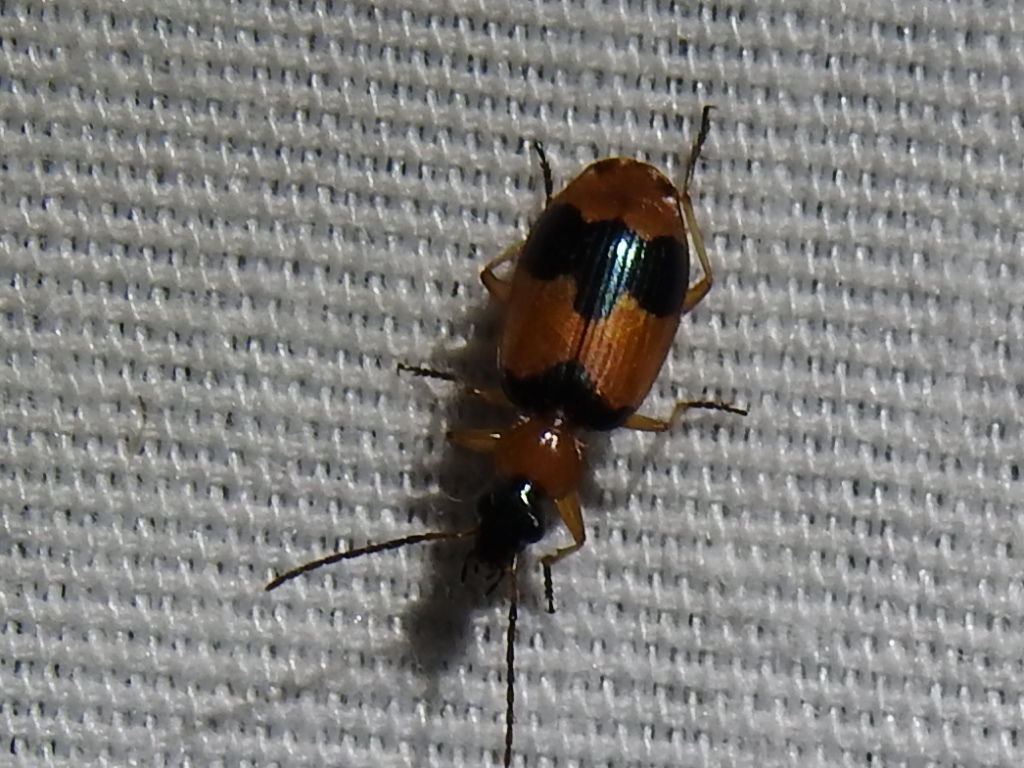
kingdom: Animalia
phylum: Arthropoda
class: Insecta
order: Coleoptera
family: Carabidae
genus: Lebia
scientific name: Lebia pulchella
